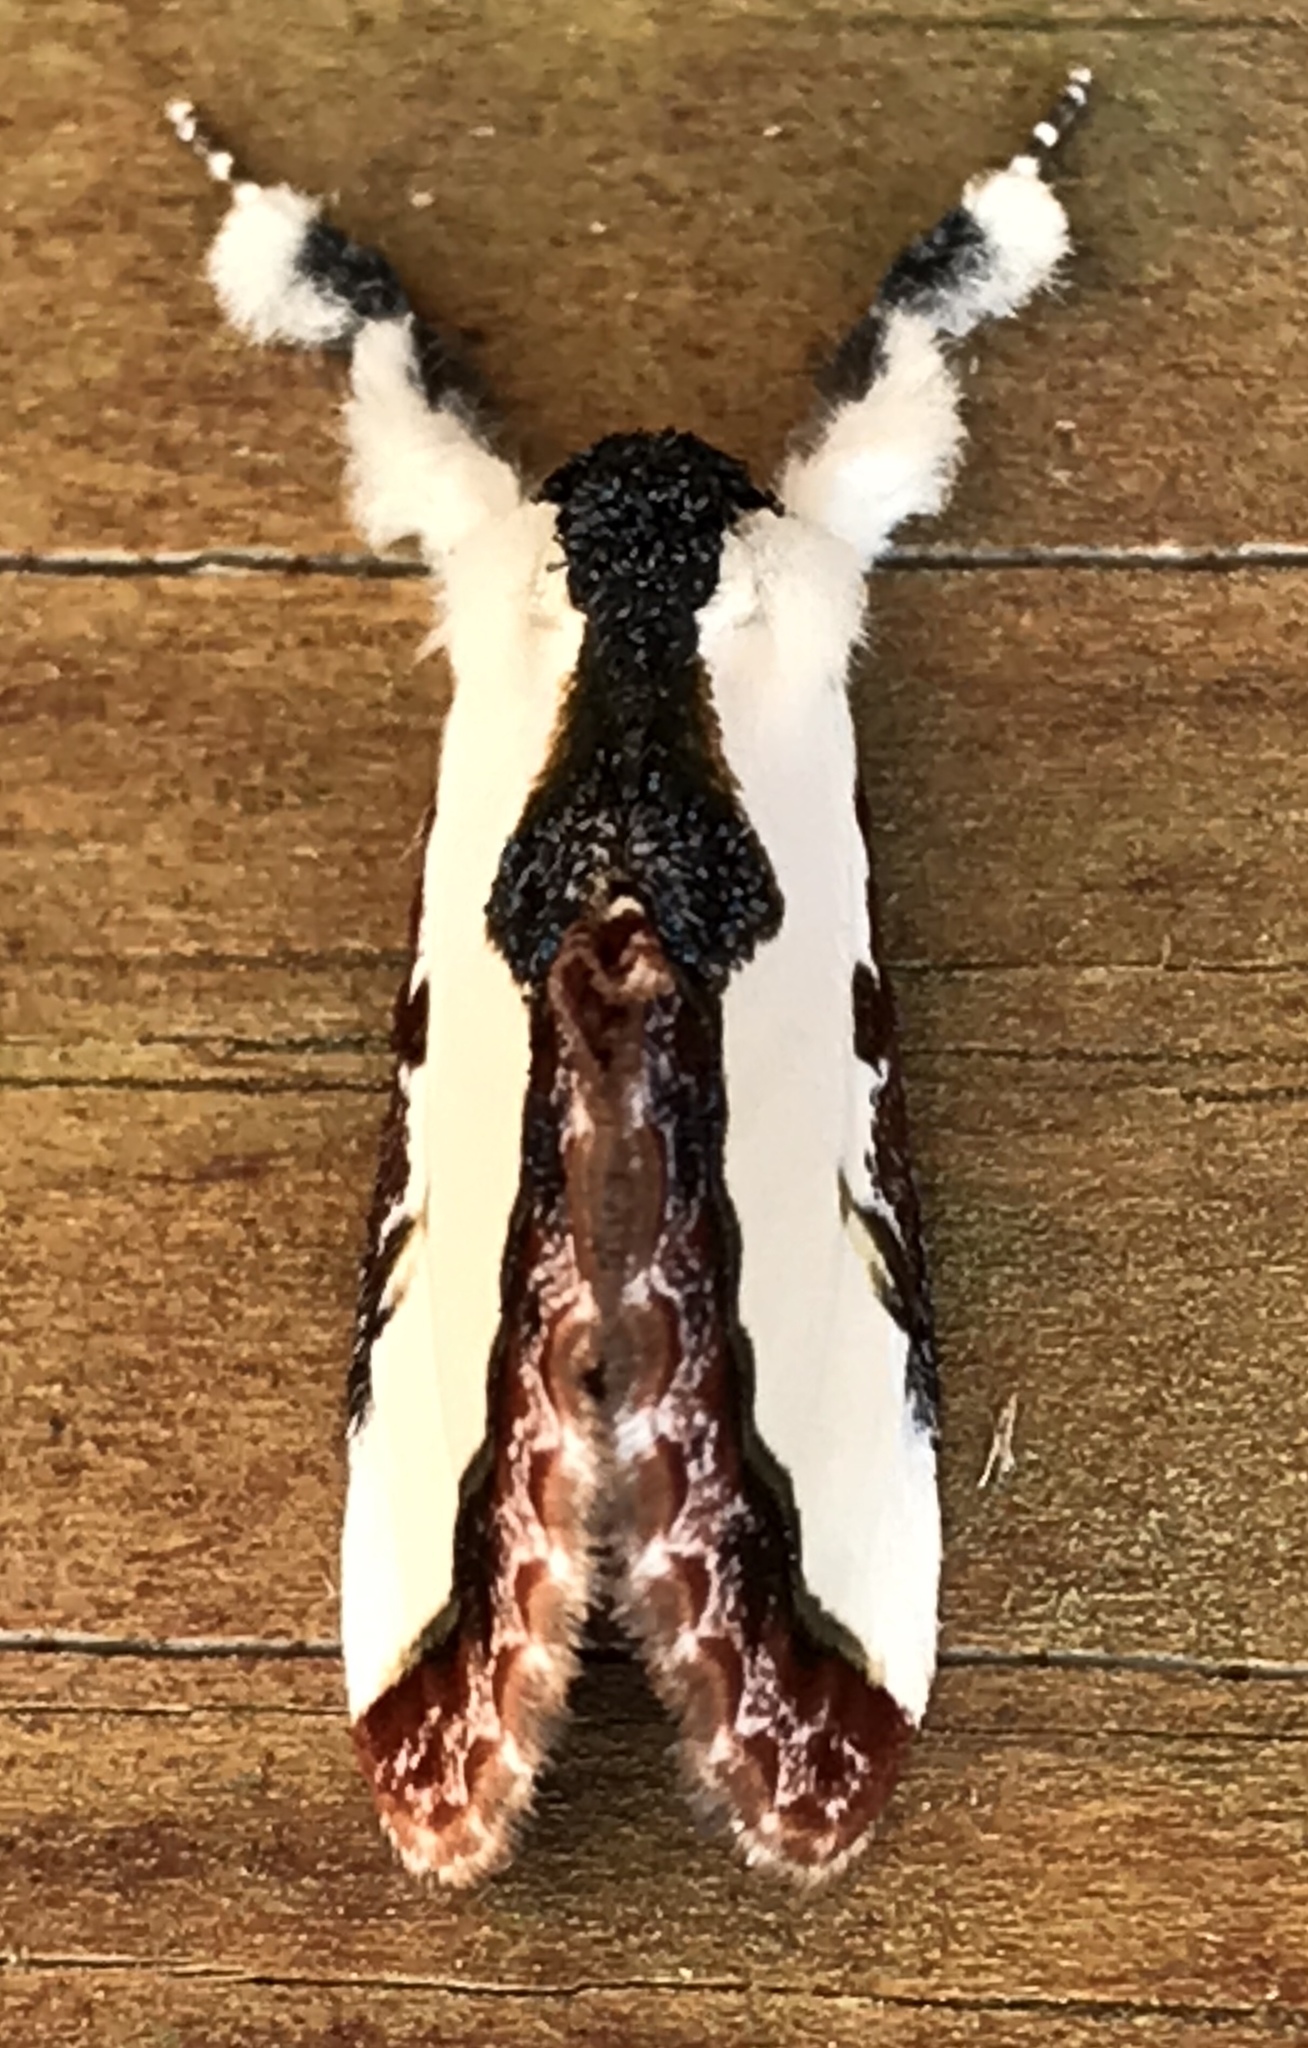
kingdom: Animalia
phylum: Arthropoda
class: Insecta
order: Lepidoptera
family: Noctuidae
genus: Eudryas
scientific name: Eudryas unio
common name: Pearly wood-nymph
